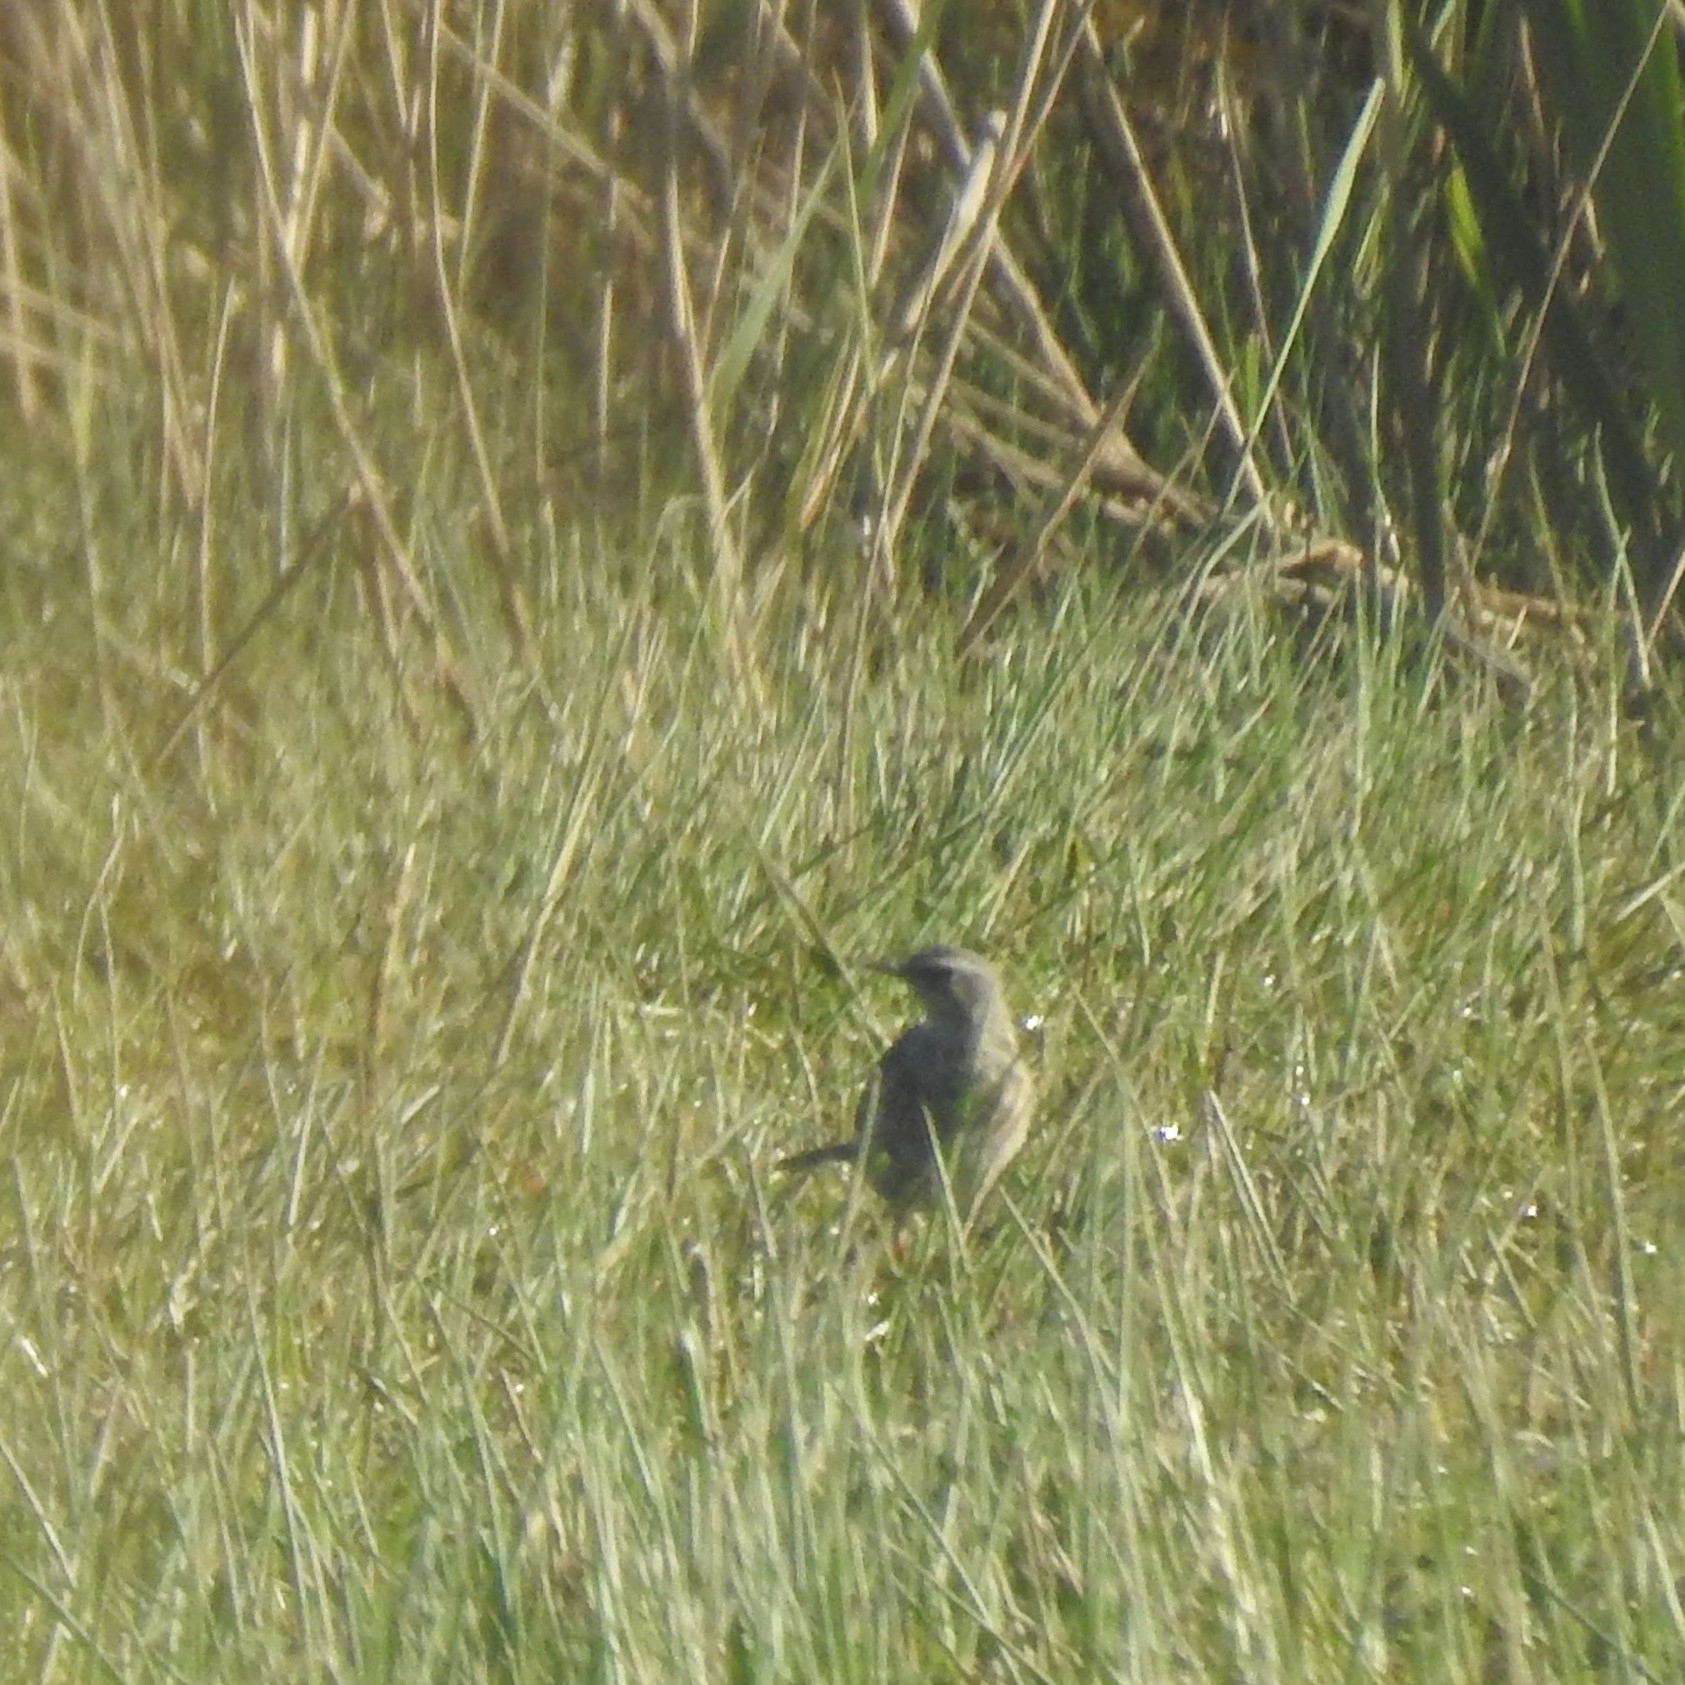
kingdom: Animalia
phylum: Chordata
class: Aves
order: Passeriformes
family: Motacillidae
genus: Anthus
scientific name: Anthus spinoletta
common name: Water pipit
